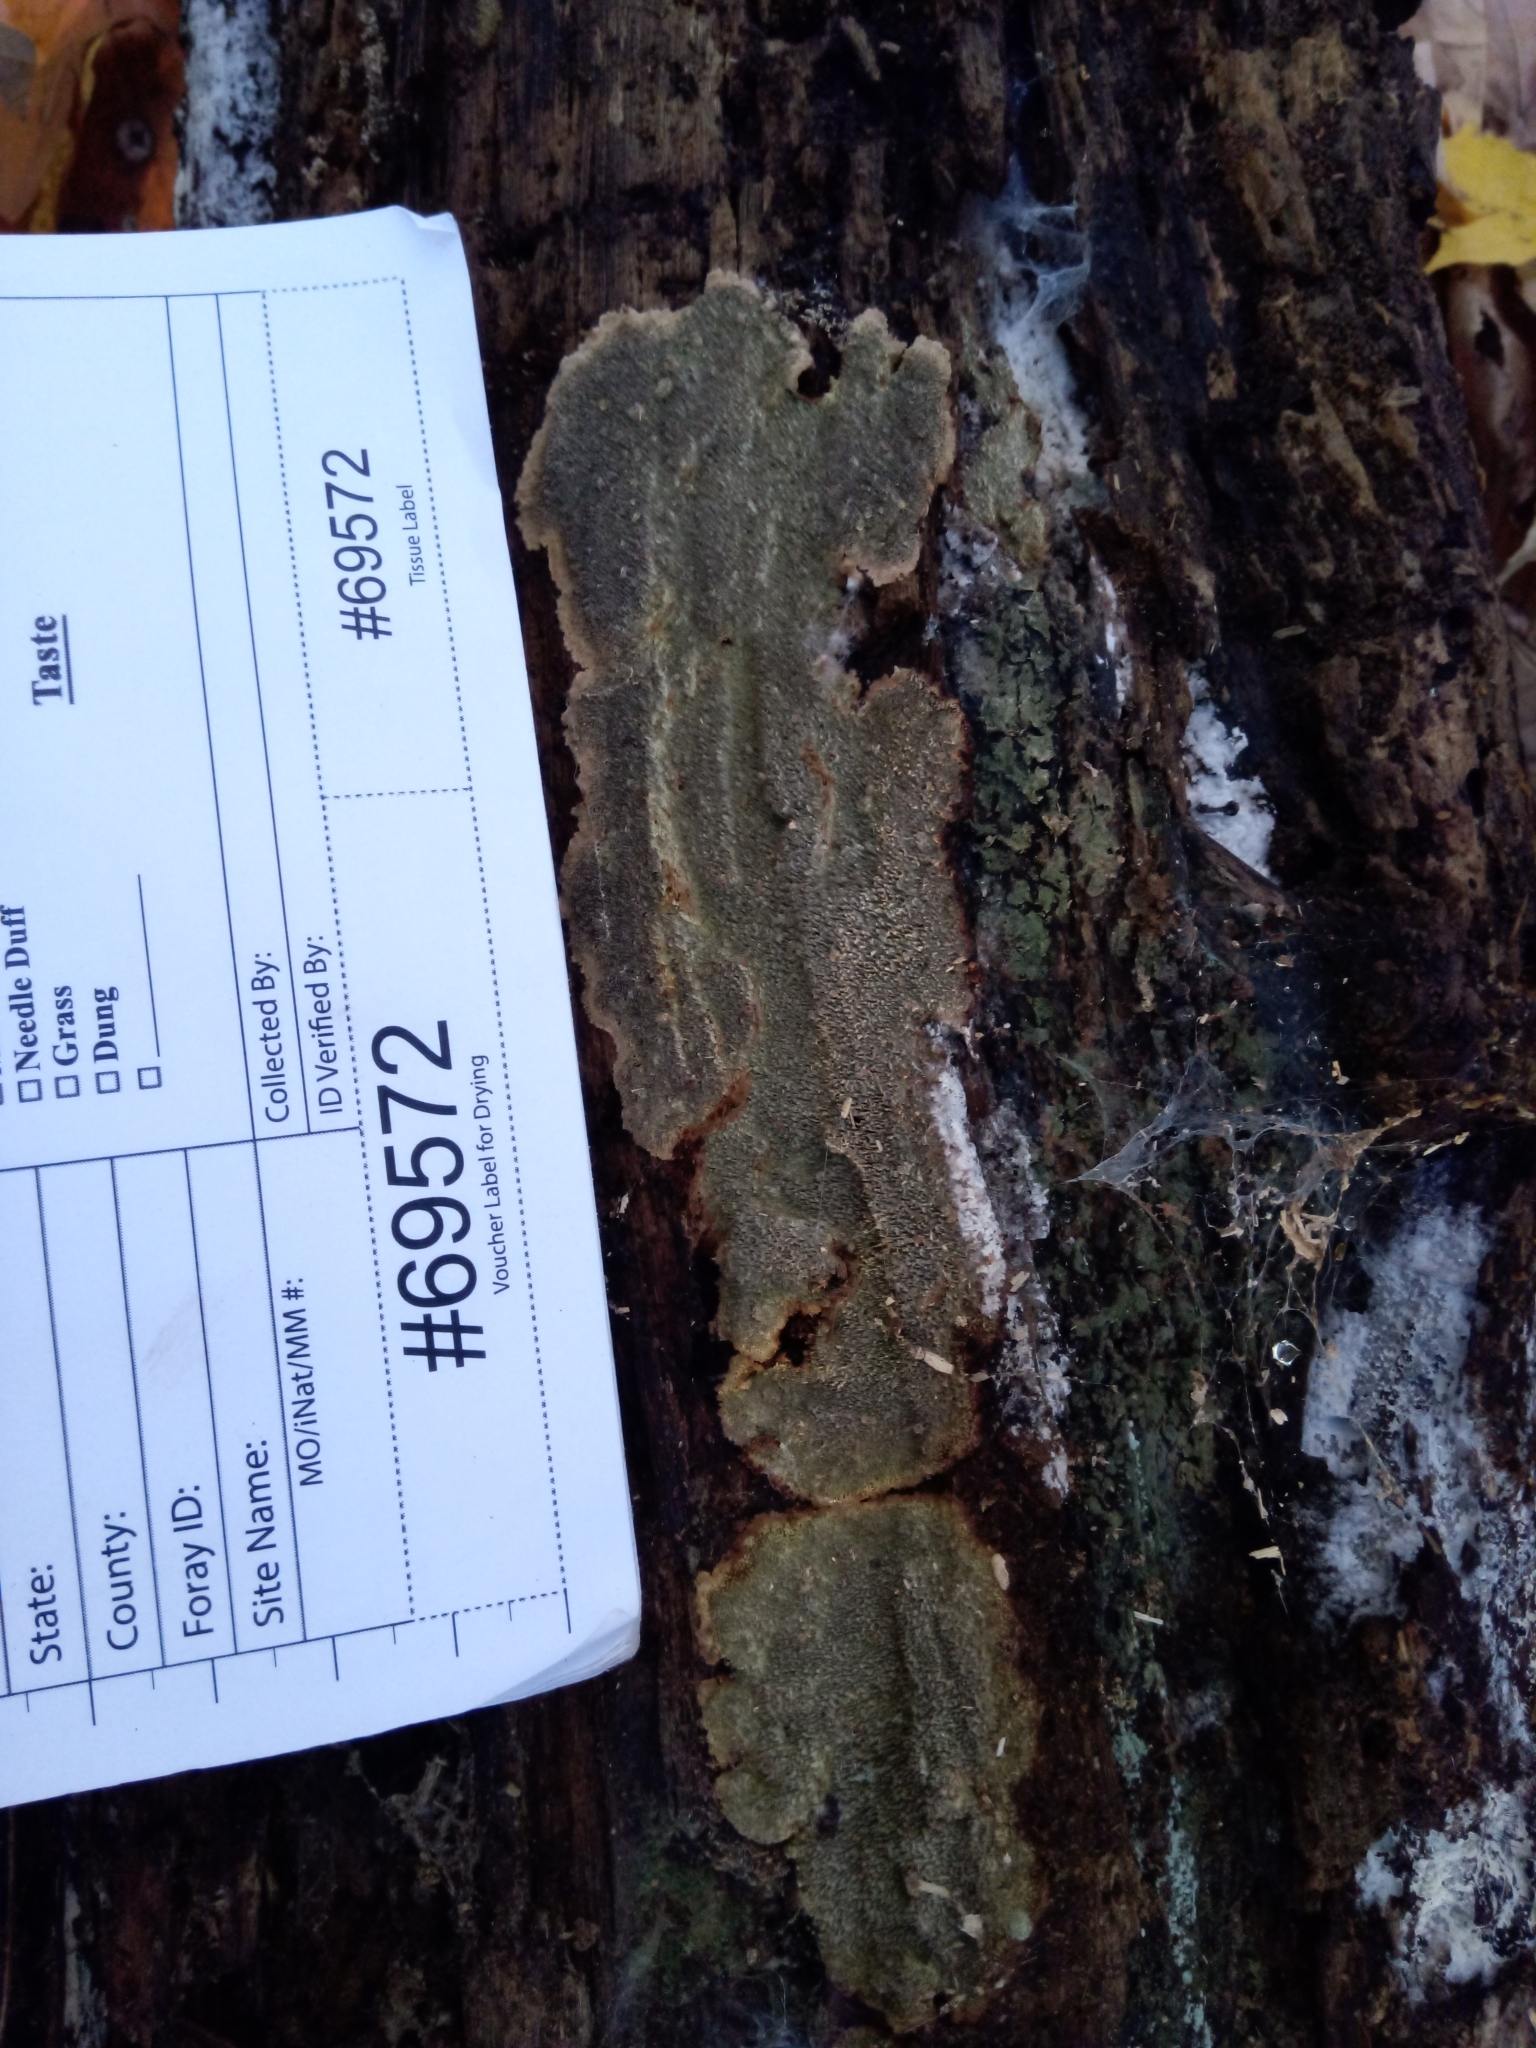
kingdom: Fungi
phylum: Basidiomycota
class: Agaricomycetes
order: Polyporales
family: Polyporaceae
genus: Dentocorticium
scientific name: Dentocorticium portoricense
